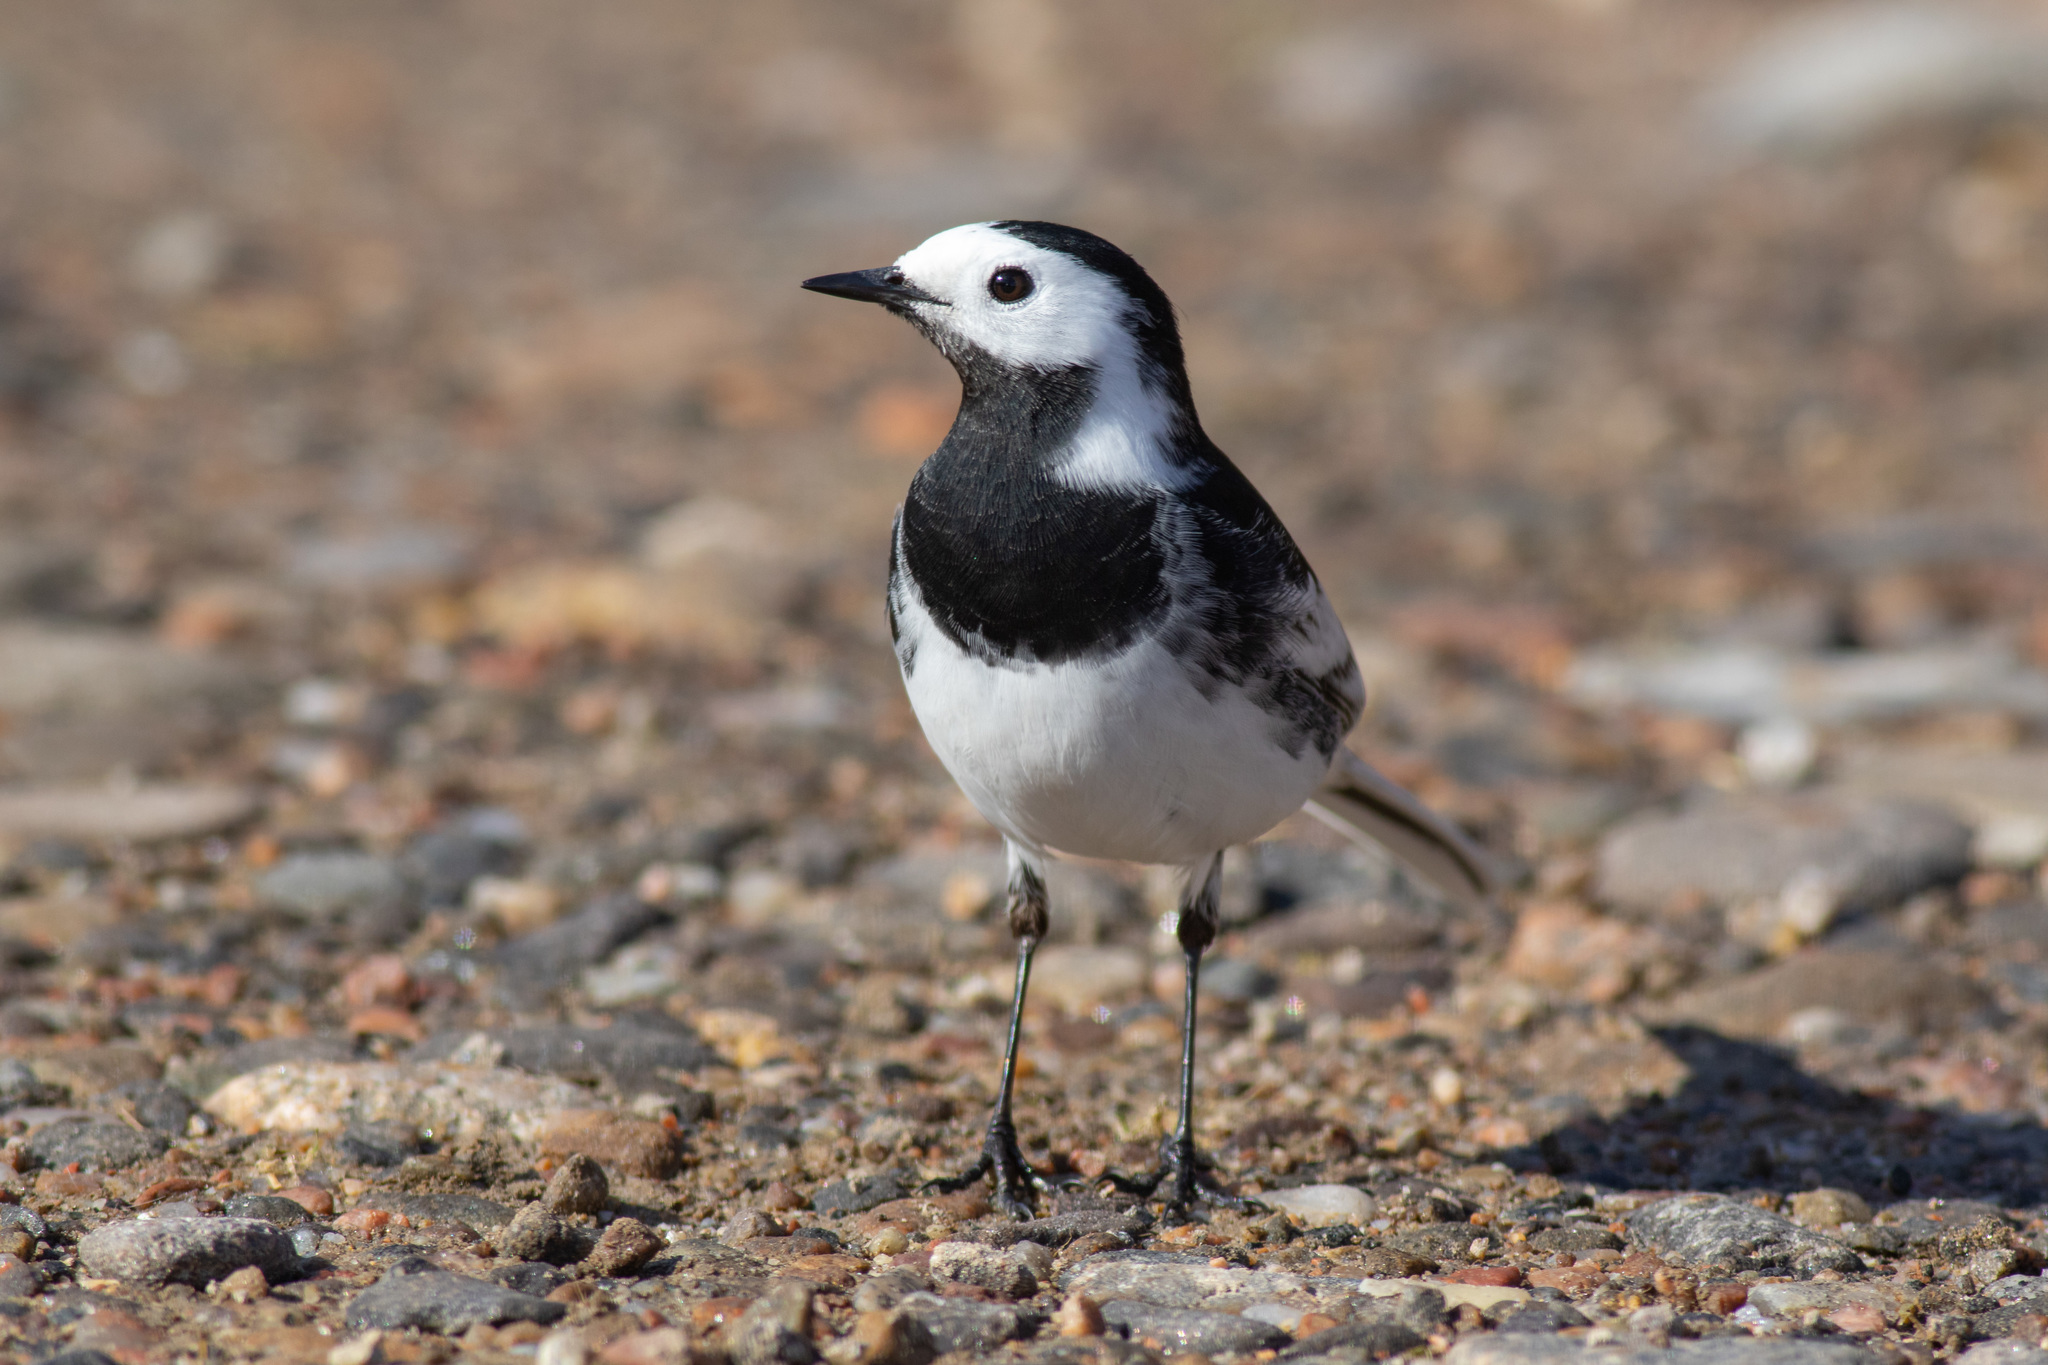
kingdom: Animalia
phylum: Chordata
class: Aves
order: Passeriformes
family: Motacillidae
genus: Motacilla
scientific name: Motacilla alba
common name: White wagtail
